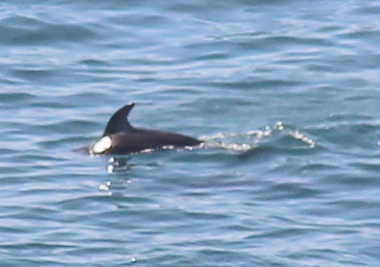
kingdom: Animalia
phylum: Chordata
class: Mammalia
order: Cetacea
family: Delphinidae
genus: Lagenorhynchus
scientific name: Lagenorhynchus obliquidens
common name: Pacific white-sided dolphin
